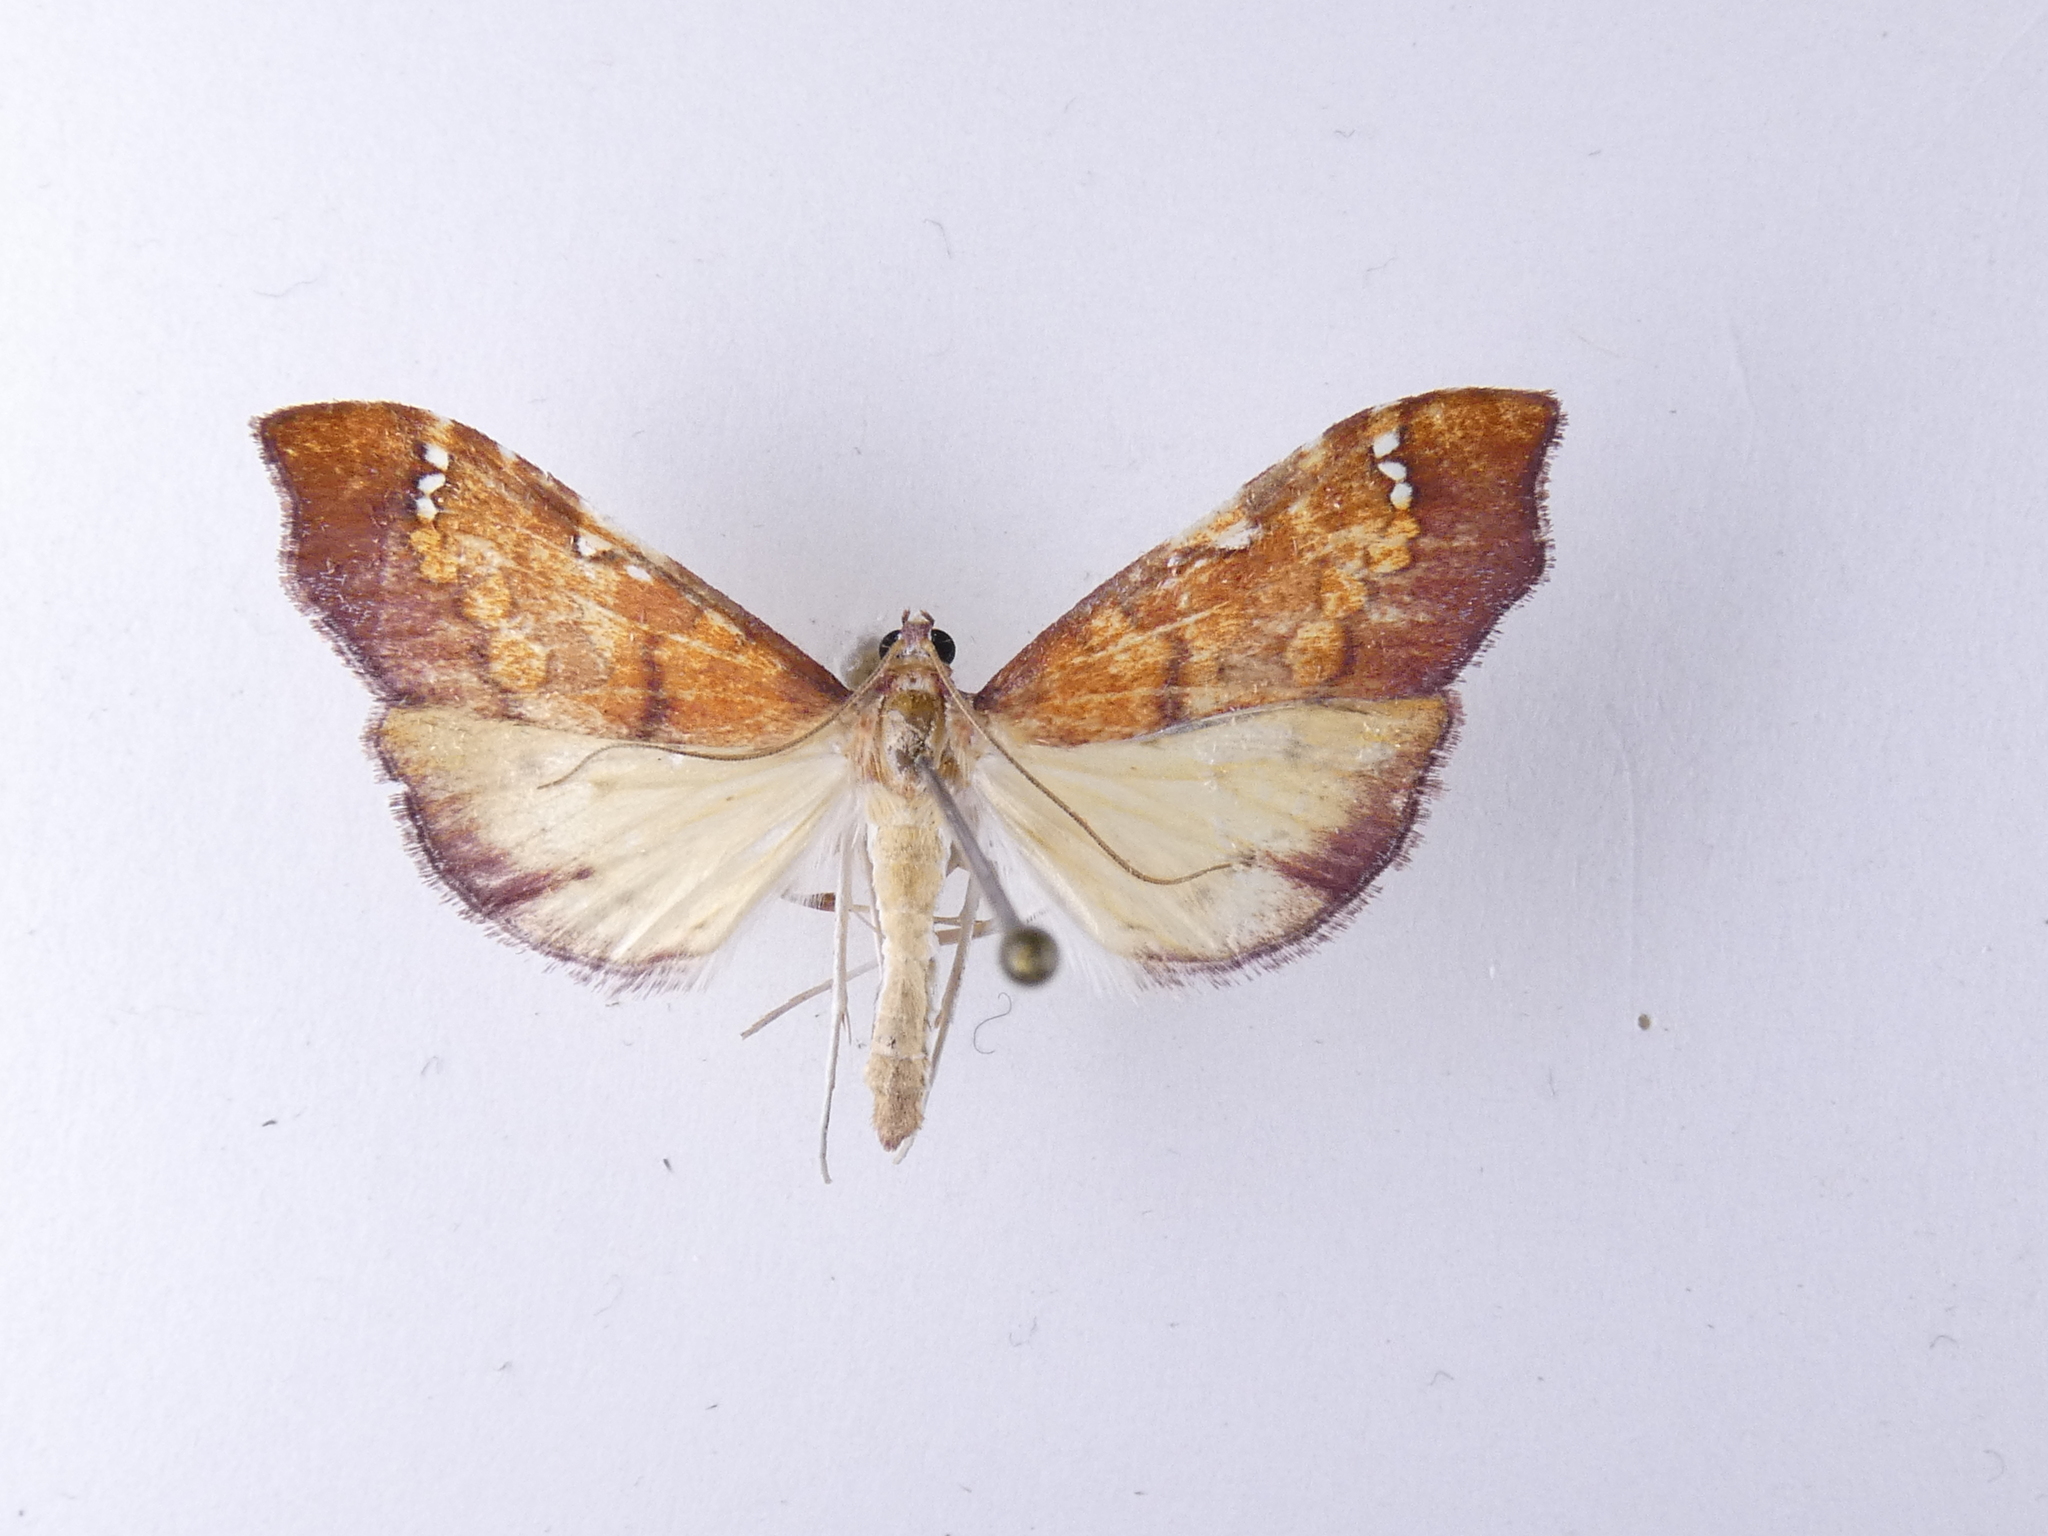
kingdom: Animalia
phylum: Arthropoda
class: Insecta
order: Lepidoptera
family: Crambidae
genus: Deana
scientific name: Deana hybreasalis
